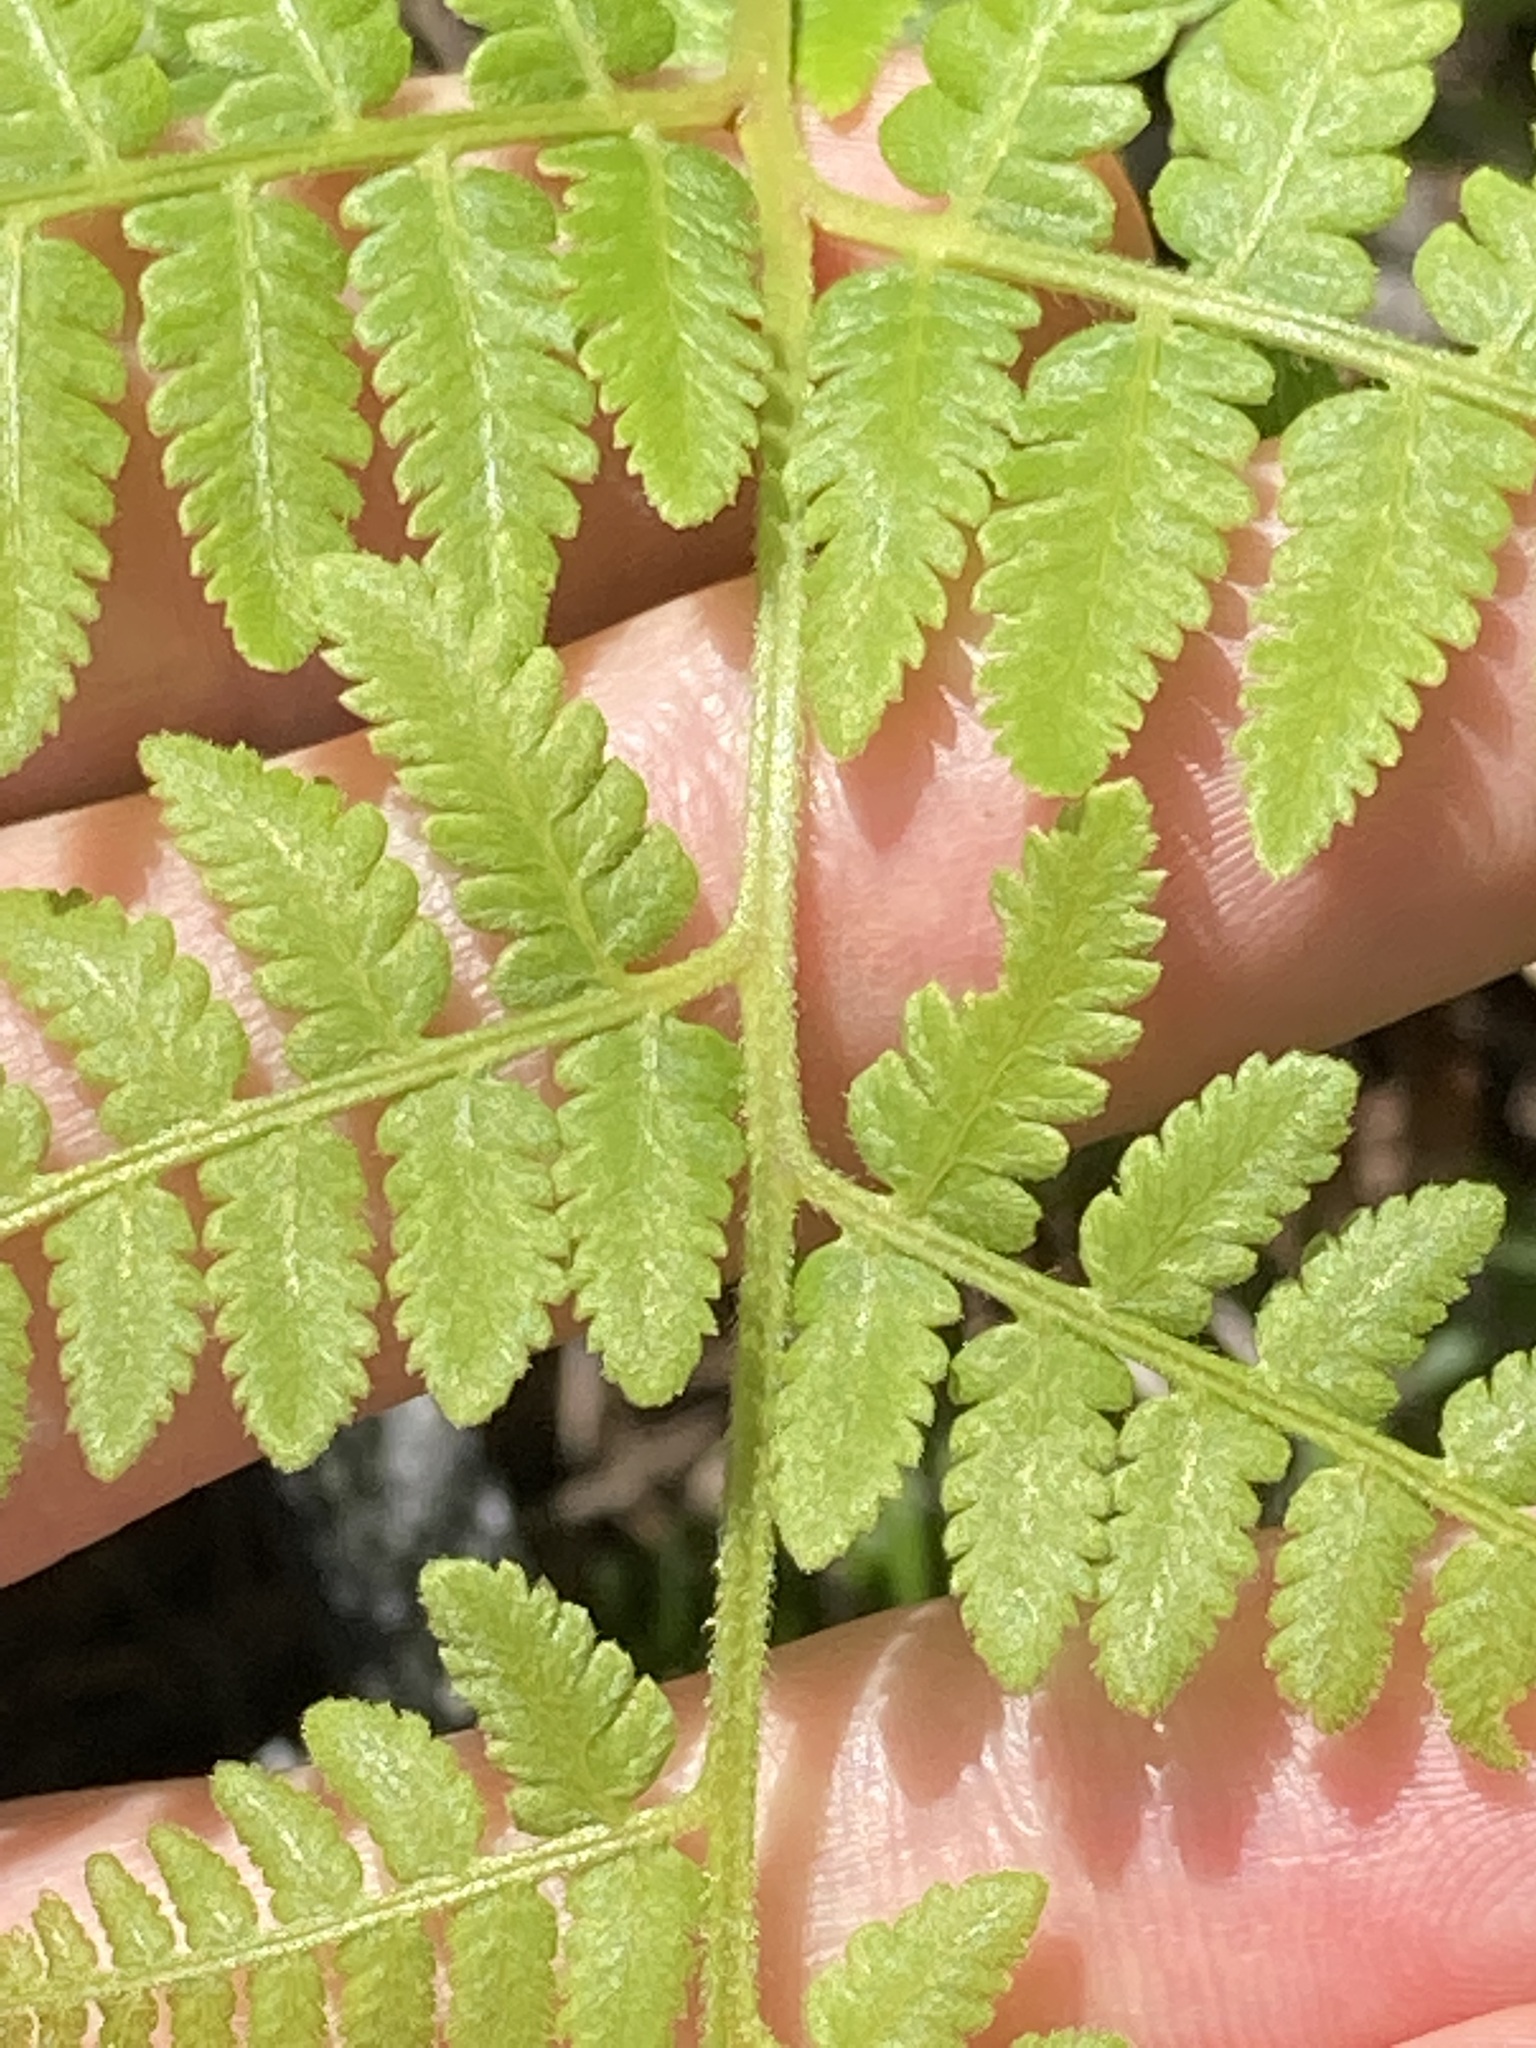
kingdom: Plantae
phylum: Tracheophyta
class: Polypodiopsida
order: Polypodiales
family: Dennstaedtiaceae
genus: Histiopteris
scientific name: Histiopteris incisa
